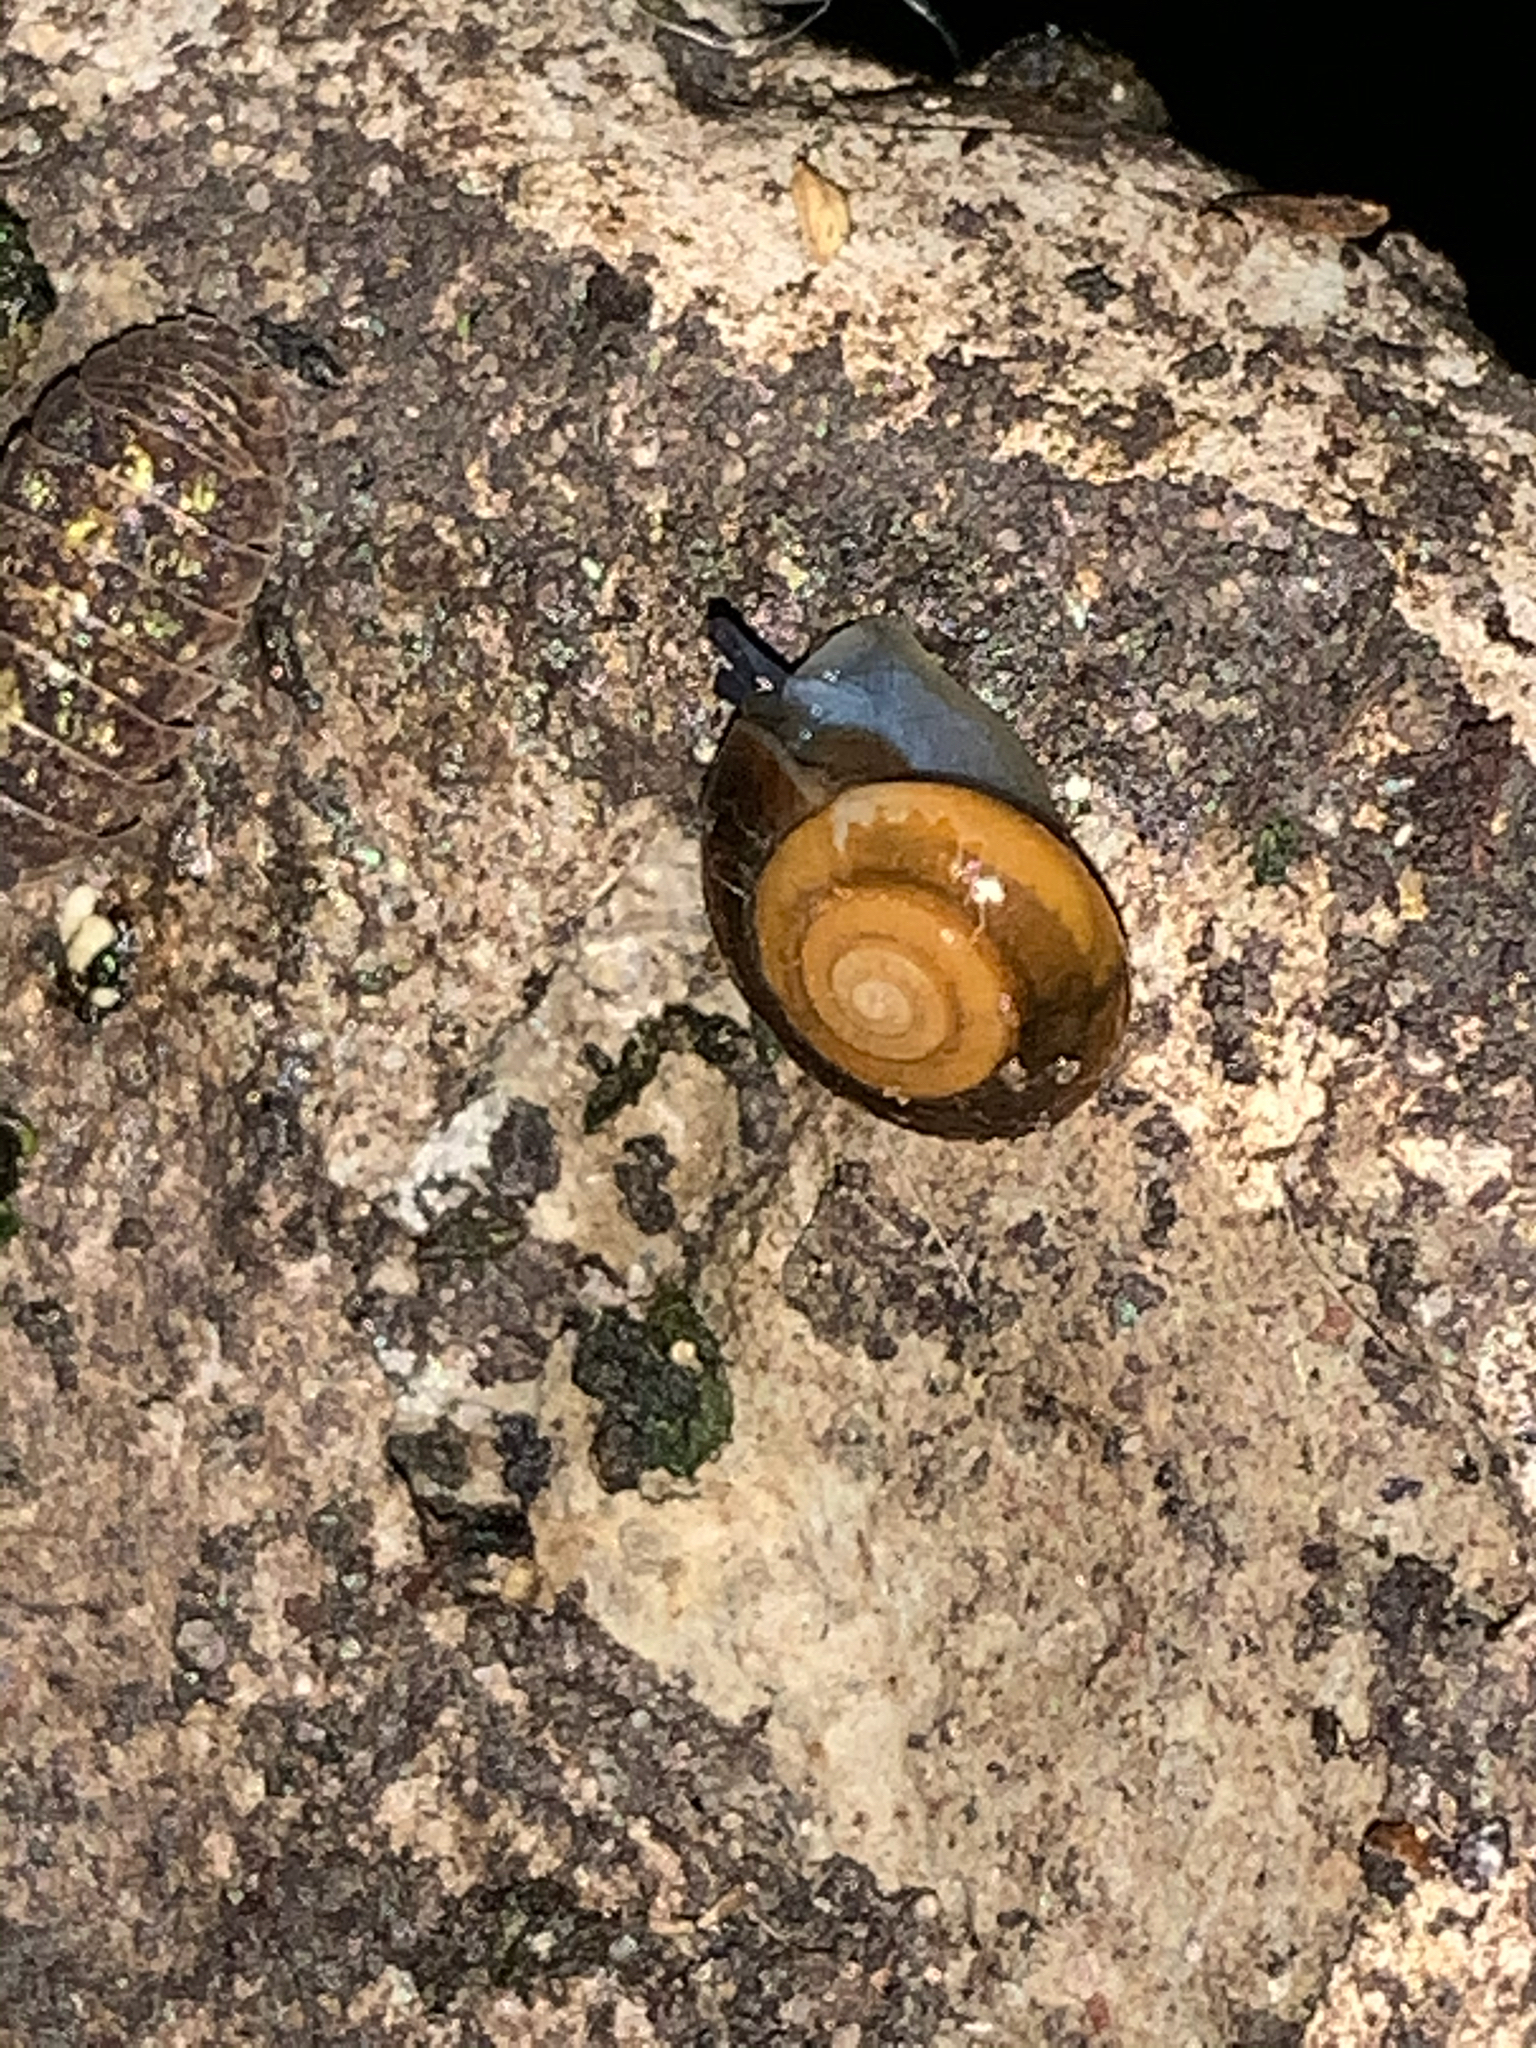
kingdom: Animalia
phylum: Mollusca
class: Gastropoda
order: Stylommatophora
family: Oxychilidae
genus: Oxychilus
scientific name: Oxychilus draparnaudi
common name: Draparnaud's glass snail
